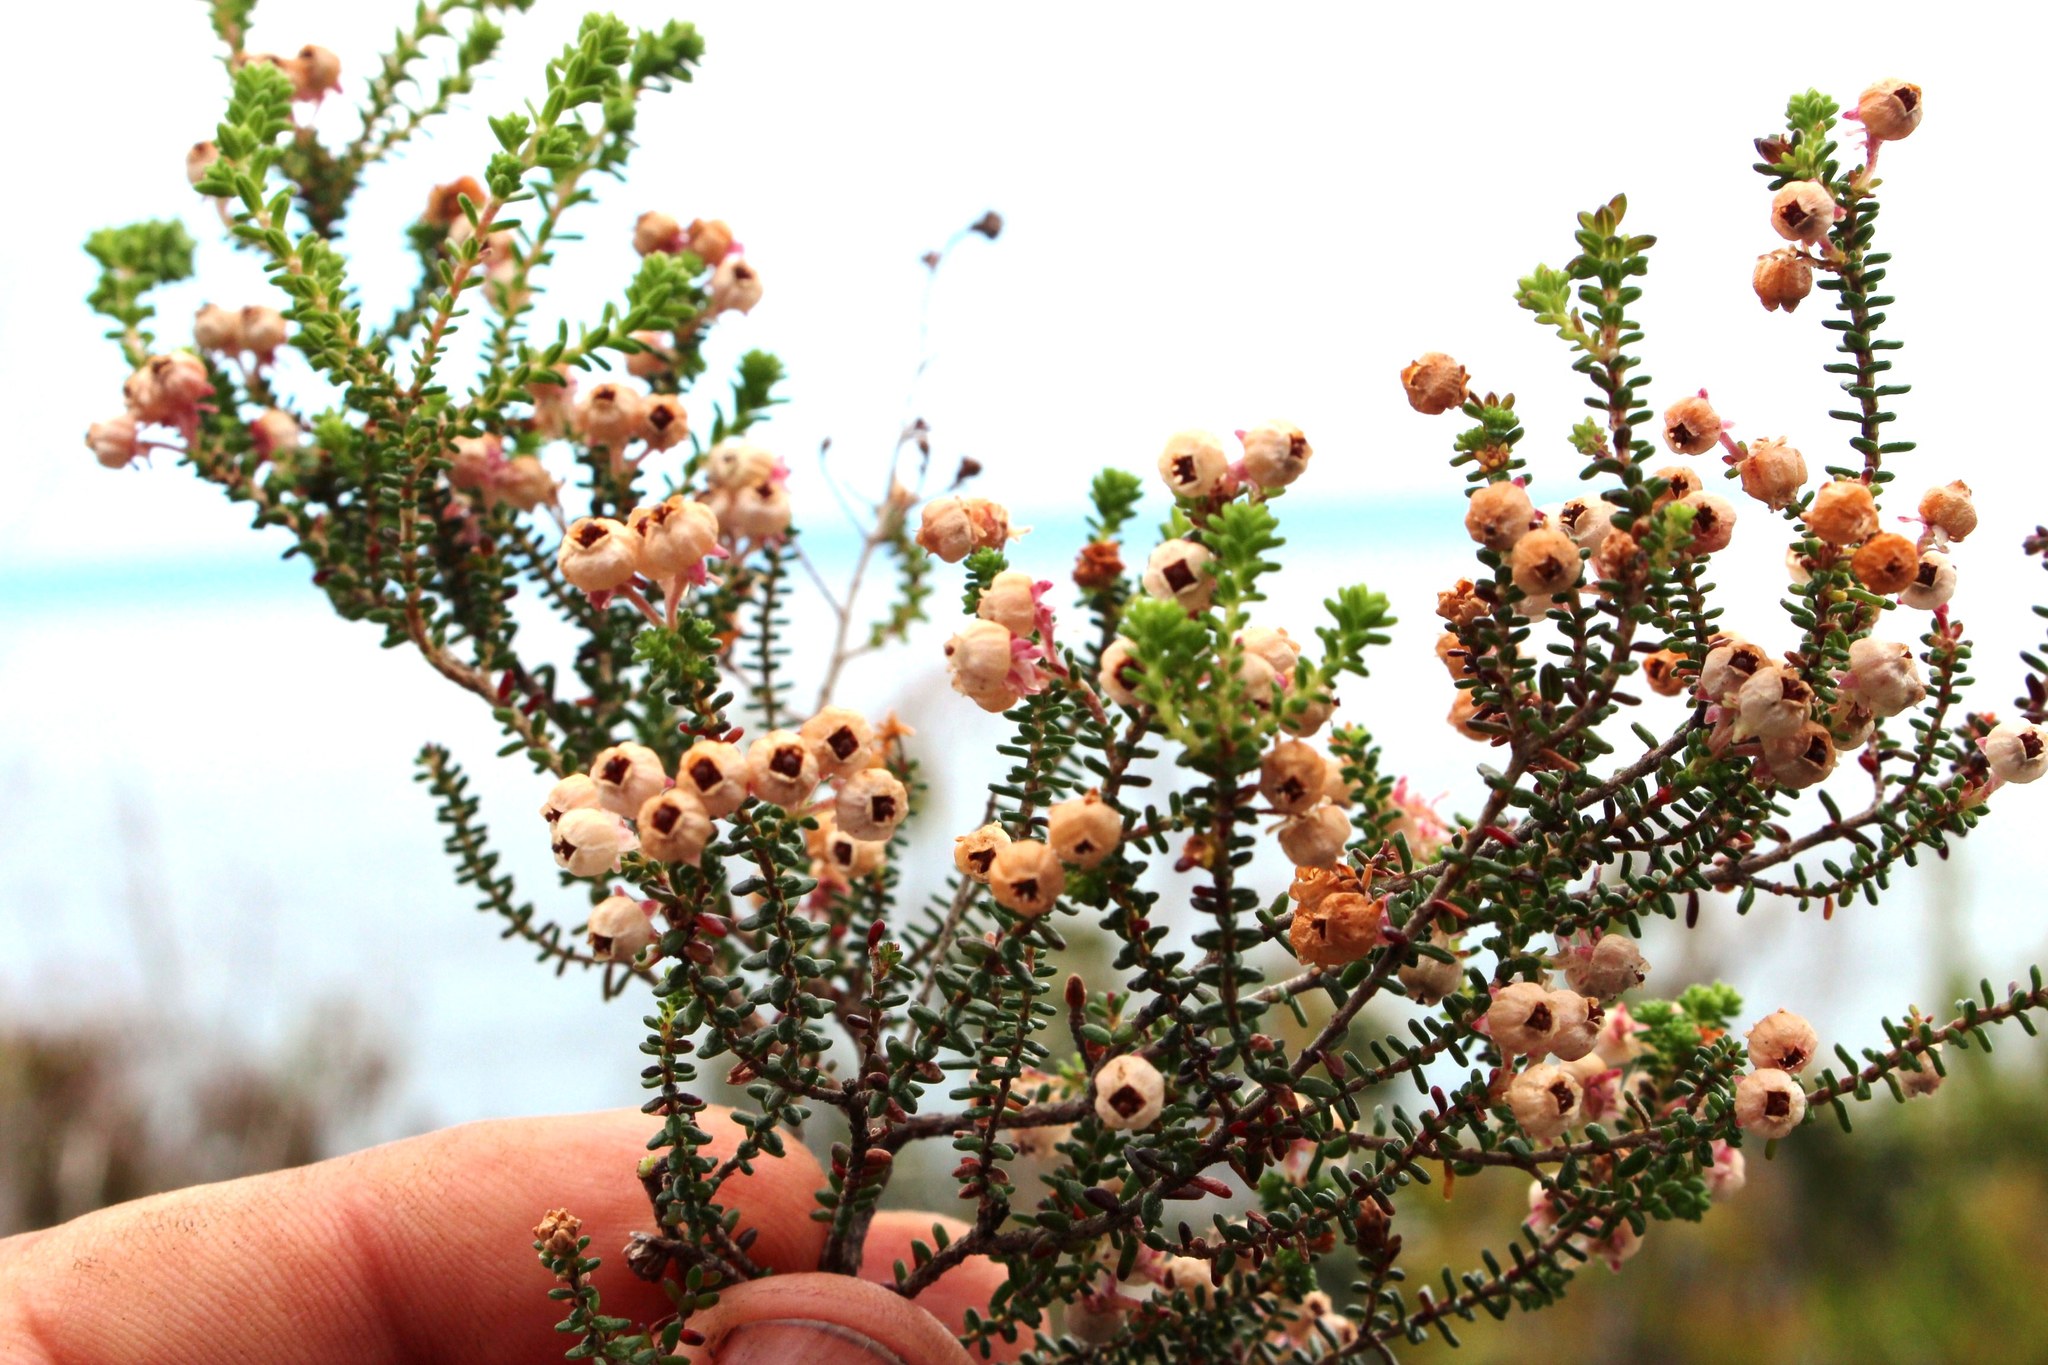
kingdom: Plantae
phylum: Tracheophyta
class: Magnoliopsida
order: Ericales
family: Ericaceae
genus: Erica
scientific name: Erica formosa
